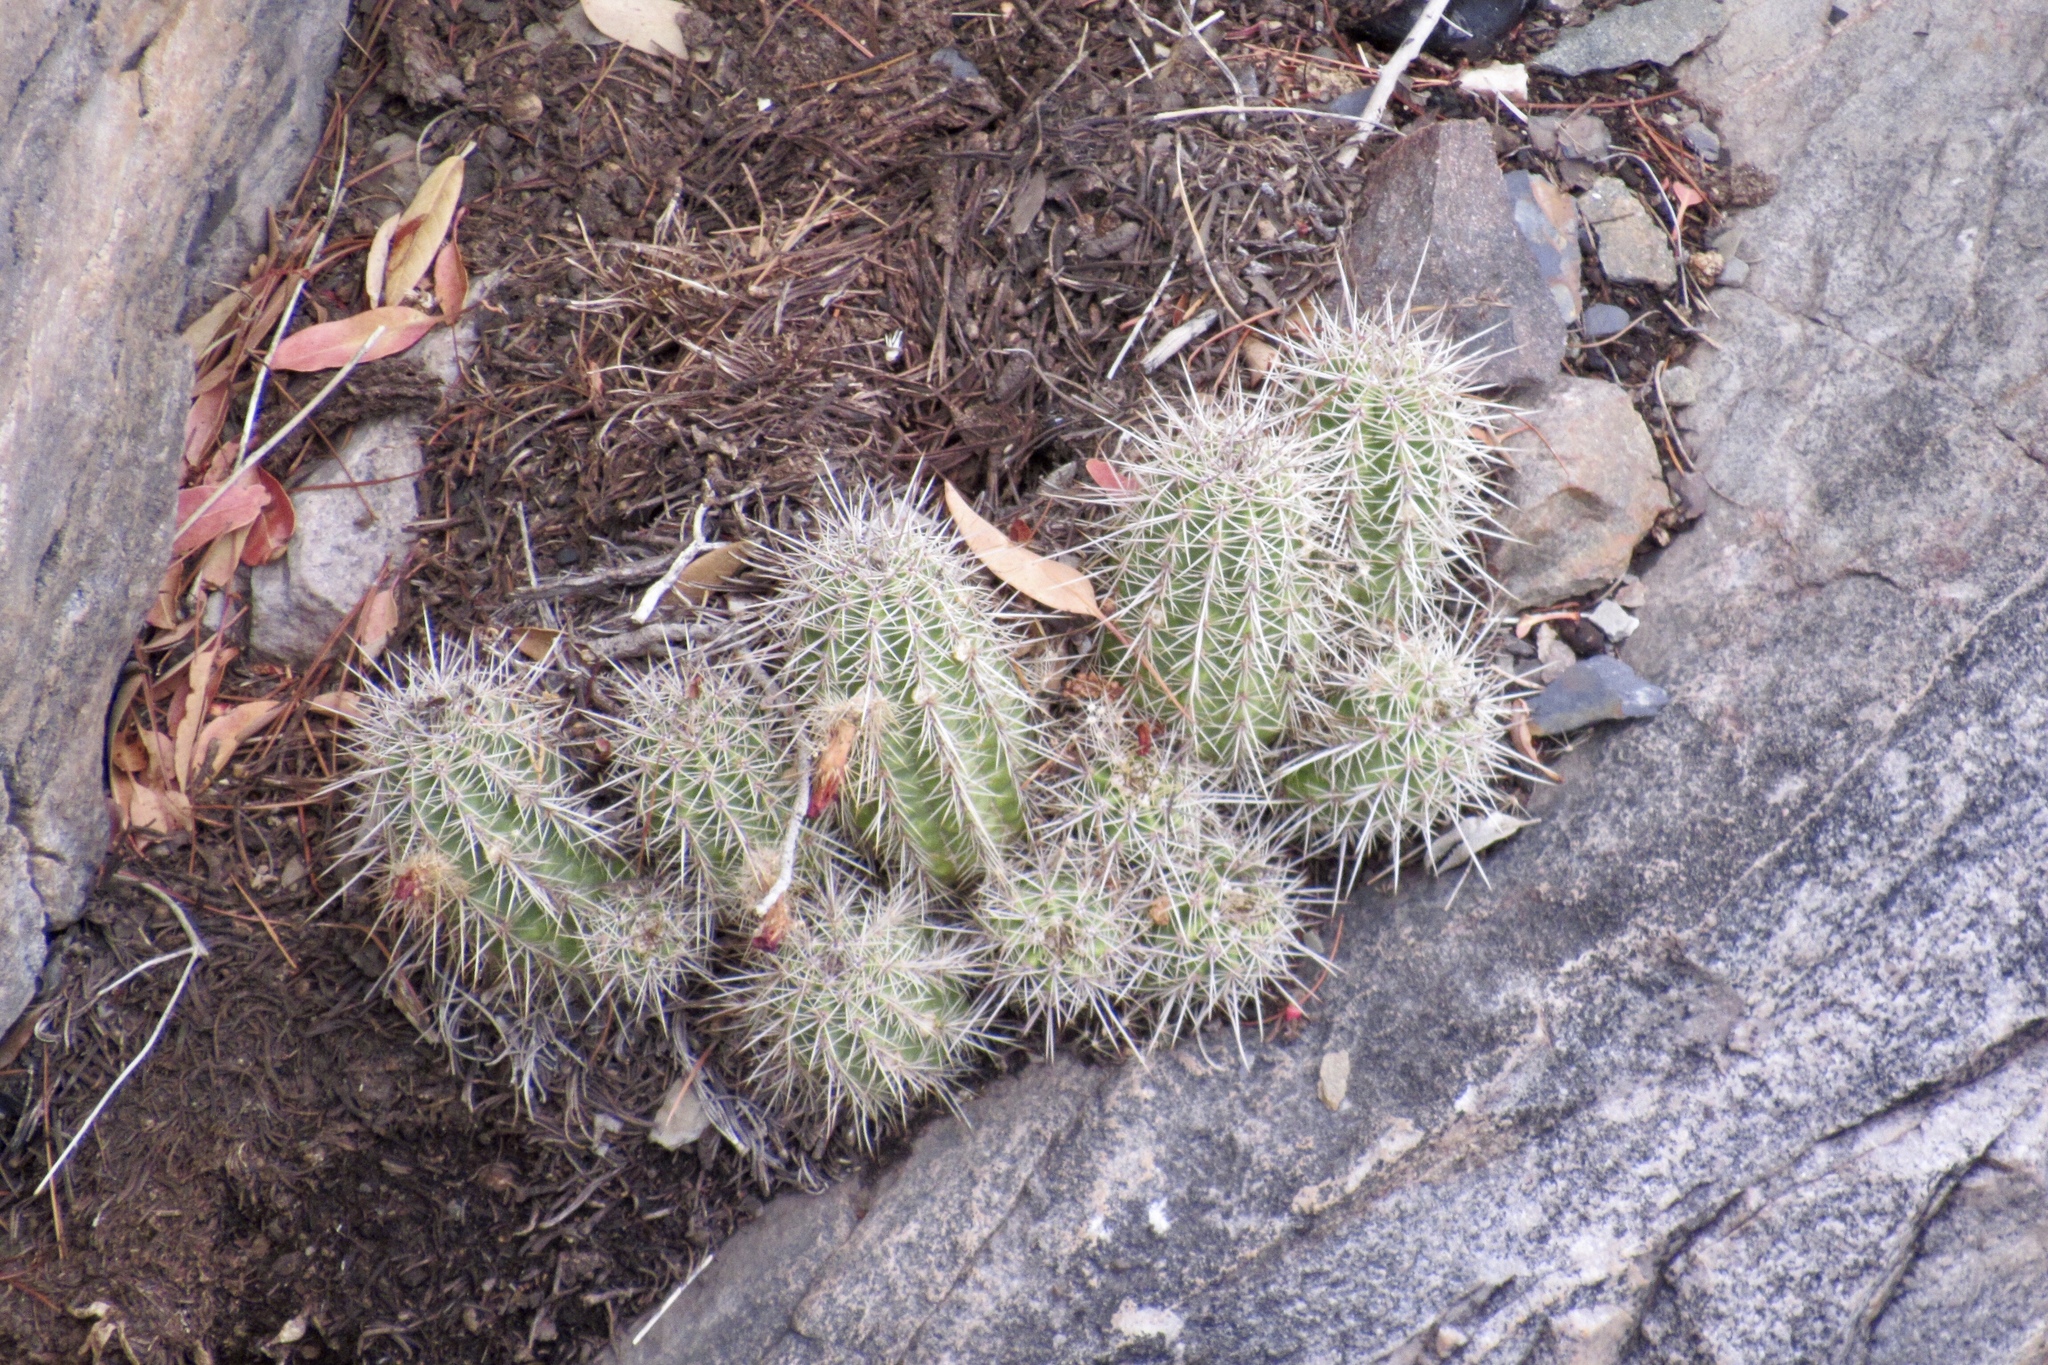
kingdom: Plantae
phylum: Tracheophyta
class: Magnoliopsida
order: Caryophyllales
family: Cactaceae
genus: Echinocereus
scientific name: Echinocereus coccineus
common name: Scarlet hedgehog cactus
